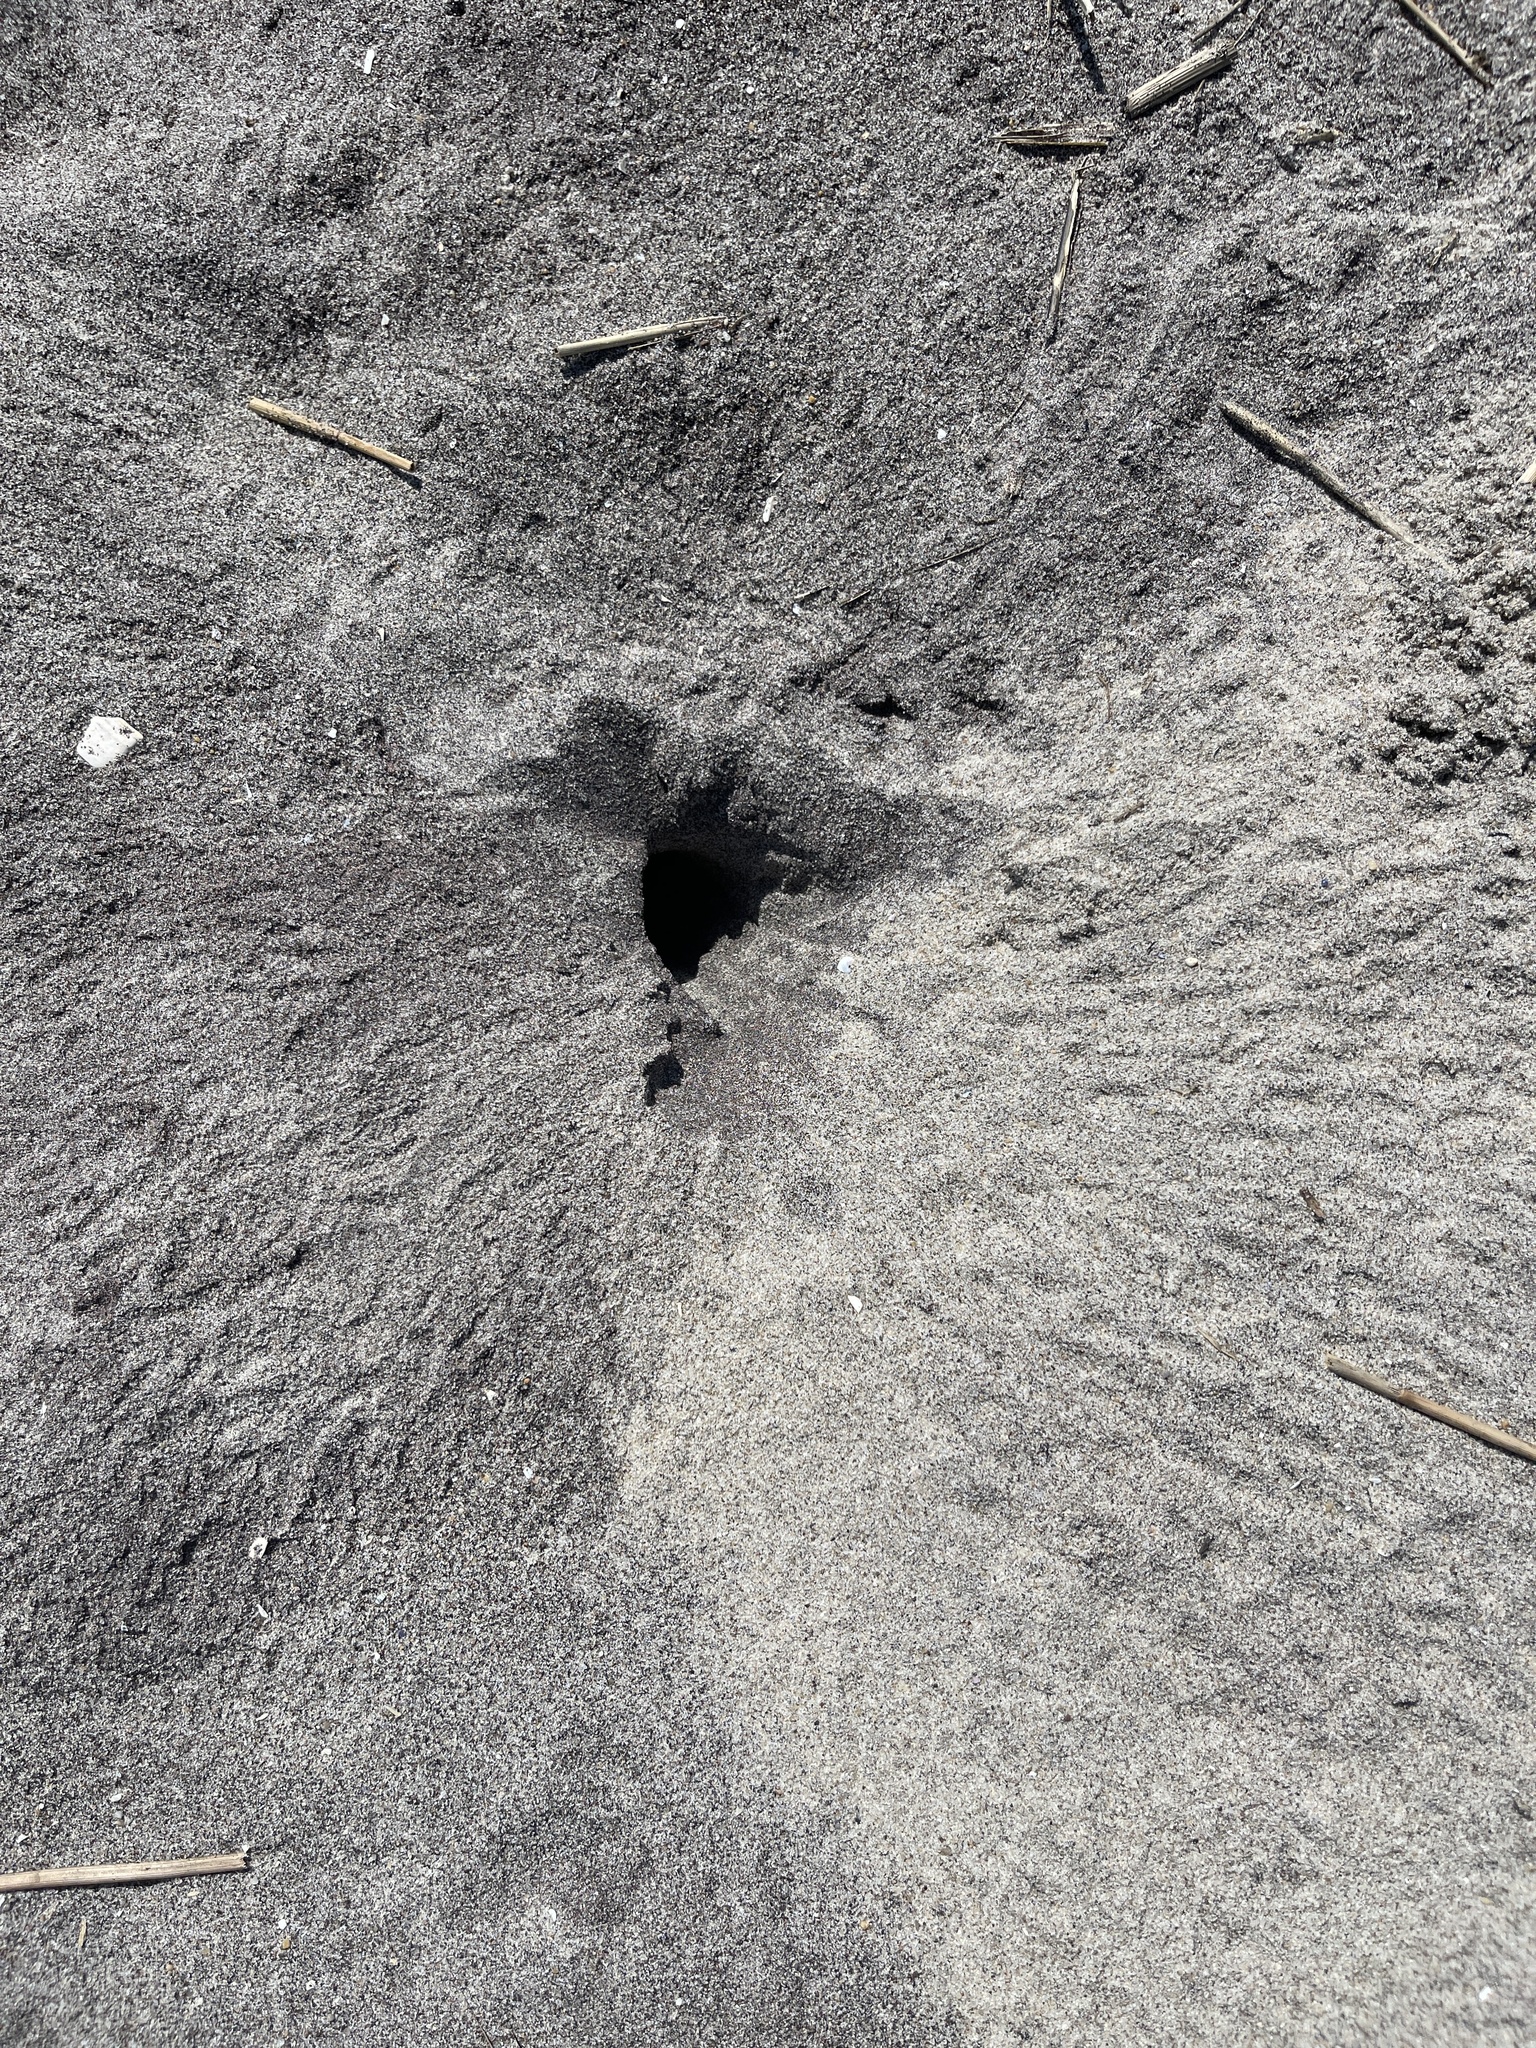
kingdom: Animalia
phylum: Arthropoda
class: Malacostraca
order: Decapoda
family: Ocypodidae
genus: Ocypode
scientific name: Ocypode quadrata
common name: Ghost crab
